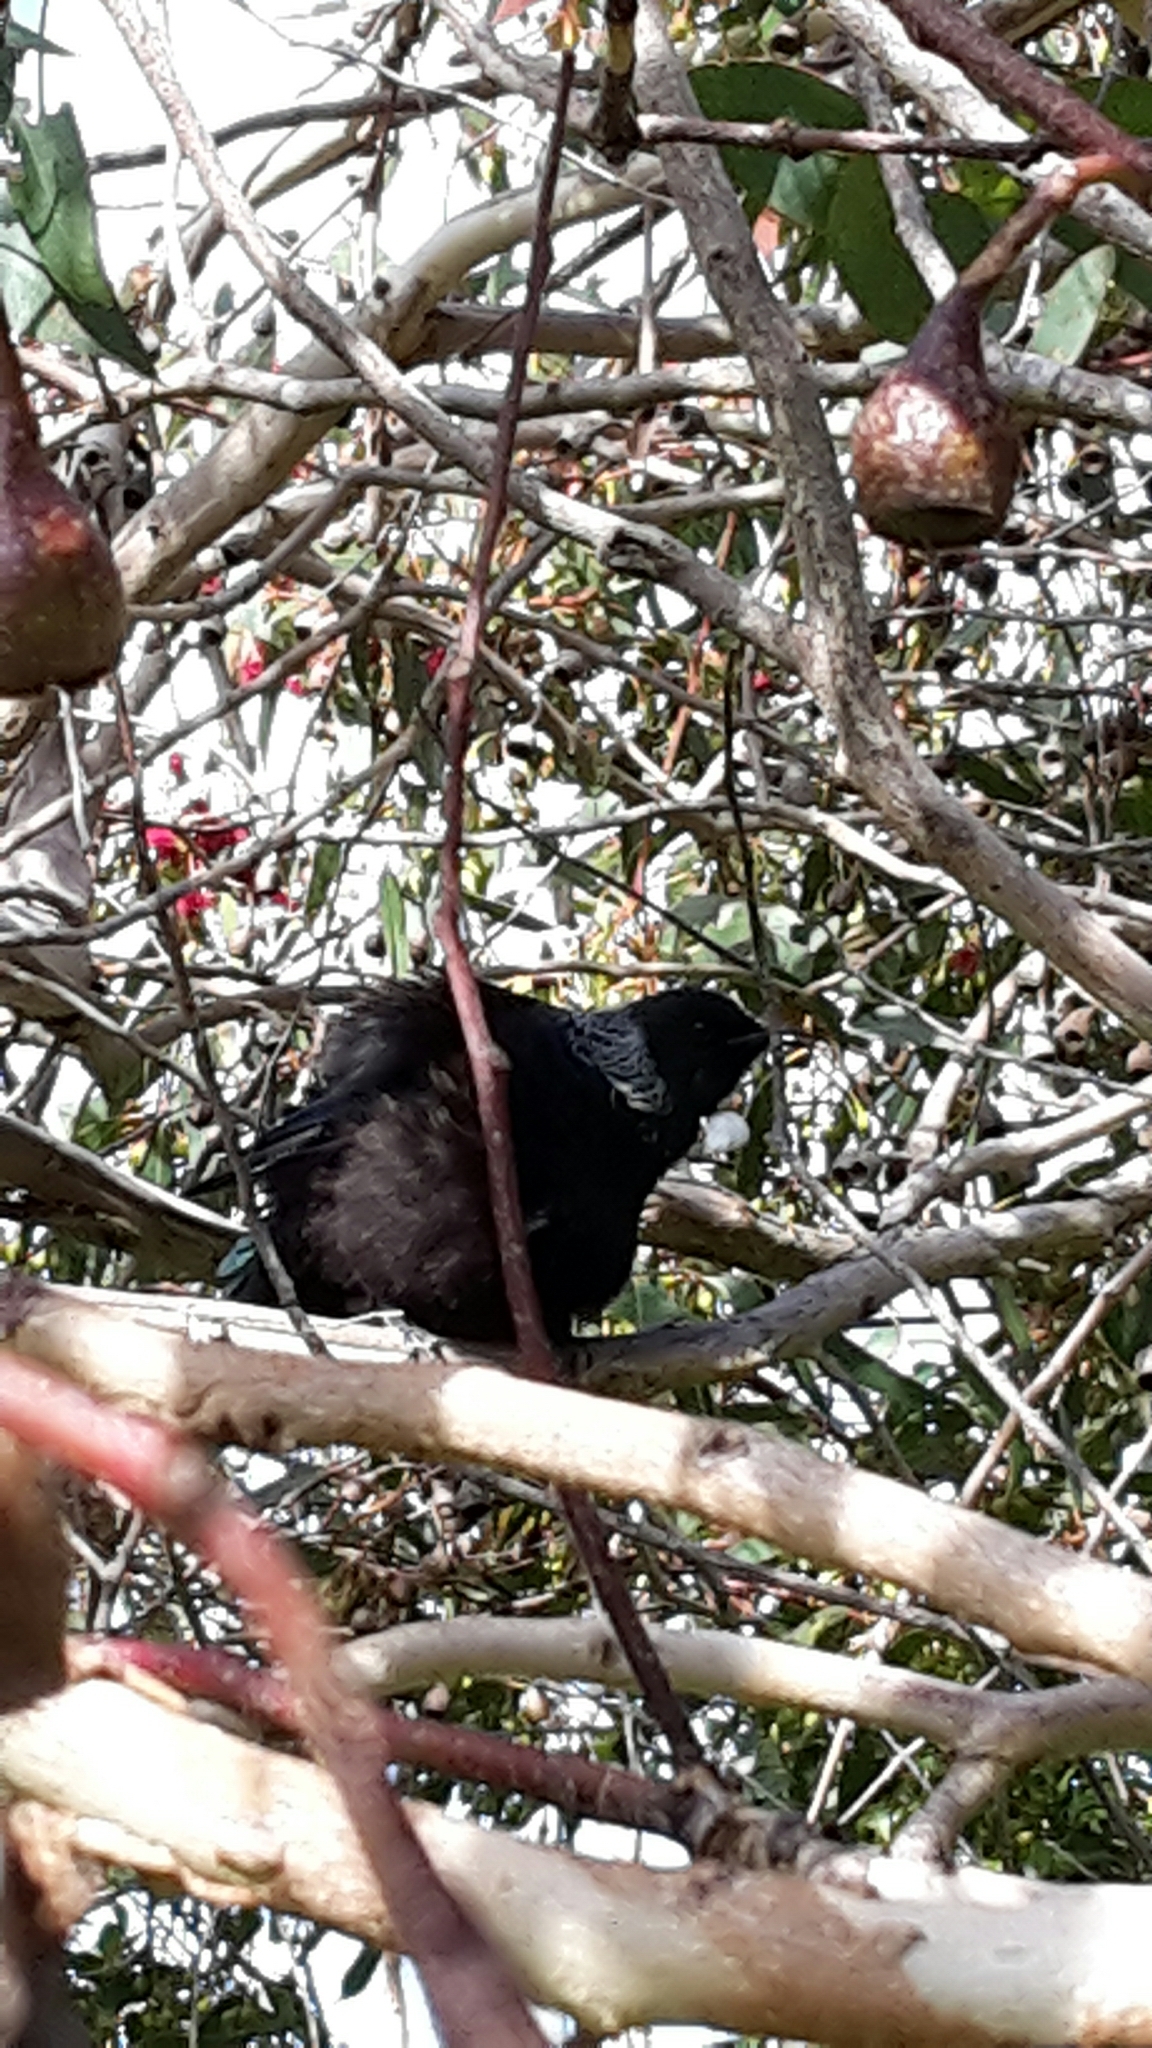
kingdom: Animalia
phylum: Chordata
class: Aves
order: Passeriformes
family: Meliphagidae
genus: Prosthemadera
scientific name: Prosthemadera novaeseelandiae
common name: Tui
